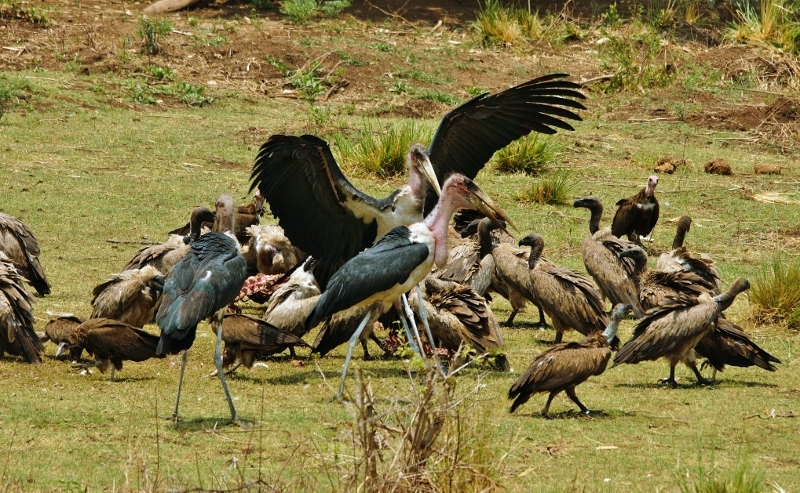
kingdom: Animalia
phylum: Chordata
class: Aves
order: Ciconiiformes
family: Ciconiidae
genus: Leptoptilos
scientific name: Leptoptilos crumenifer
